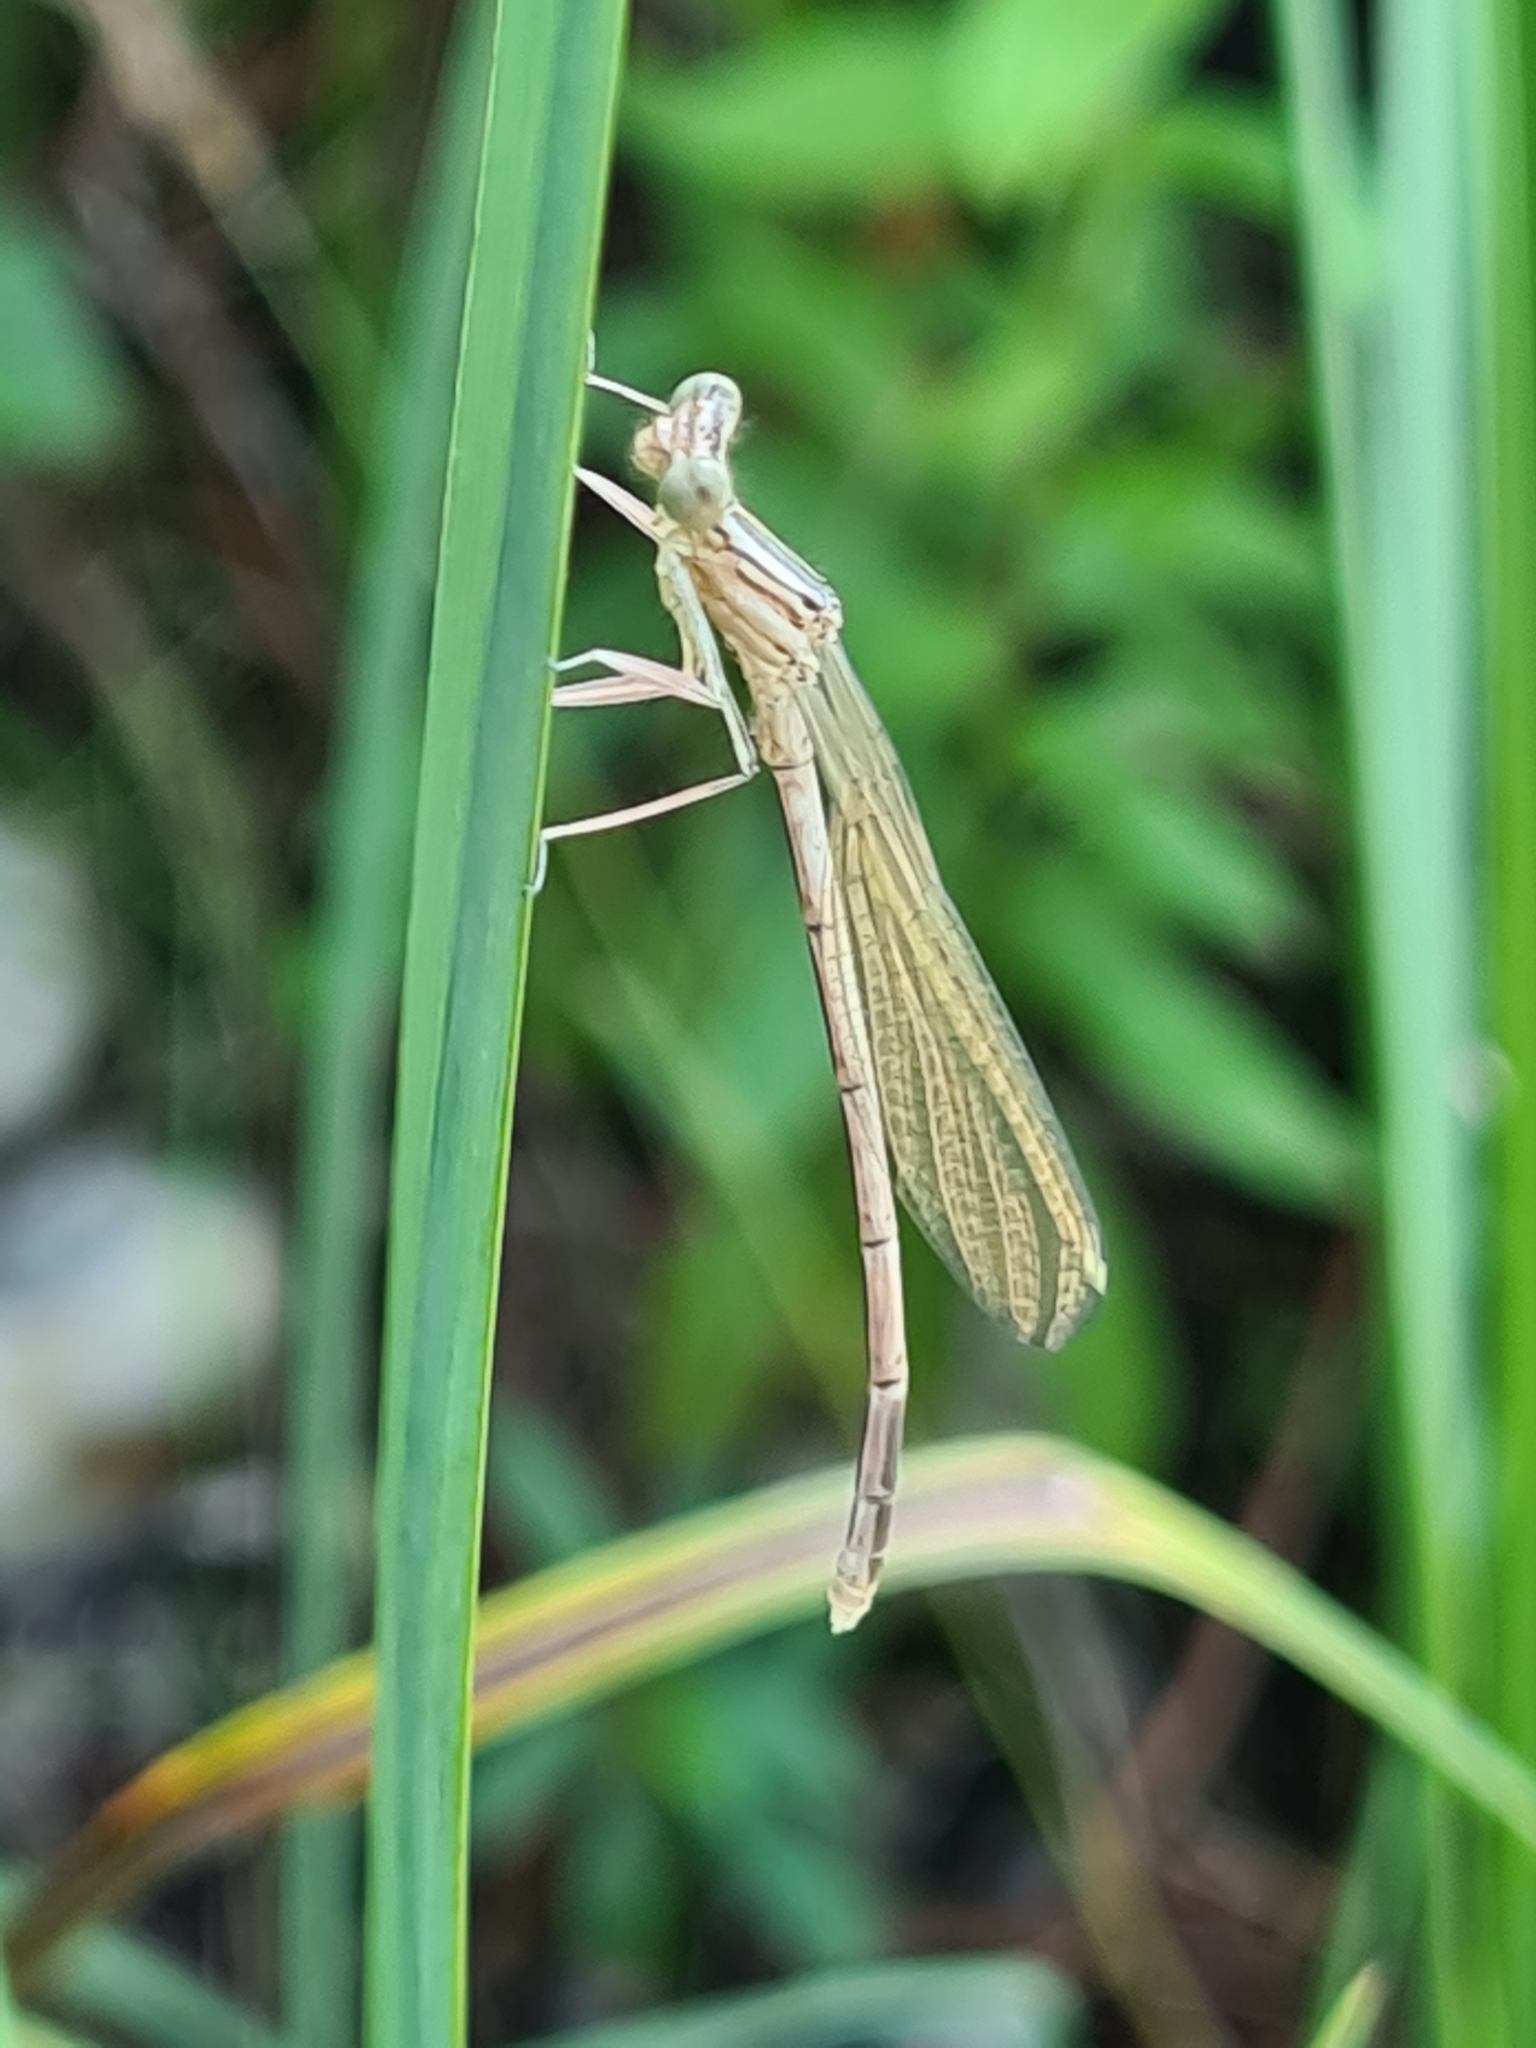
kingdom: Animalia
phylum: Arthropoda
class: Insecta
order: Odonata
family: Platycnemididae
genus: Platycnemis
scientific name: Platycnemis pennipes
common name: White-legged damselfly
